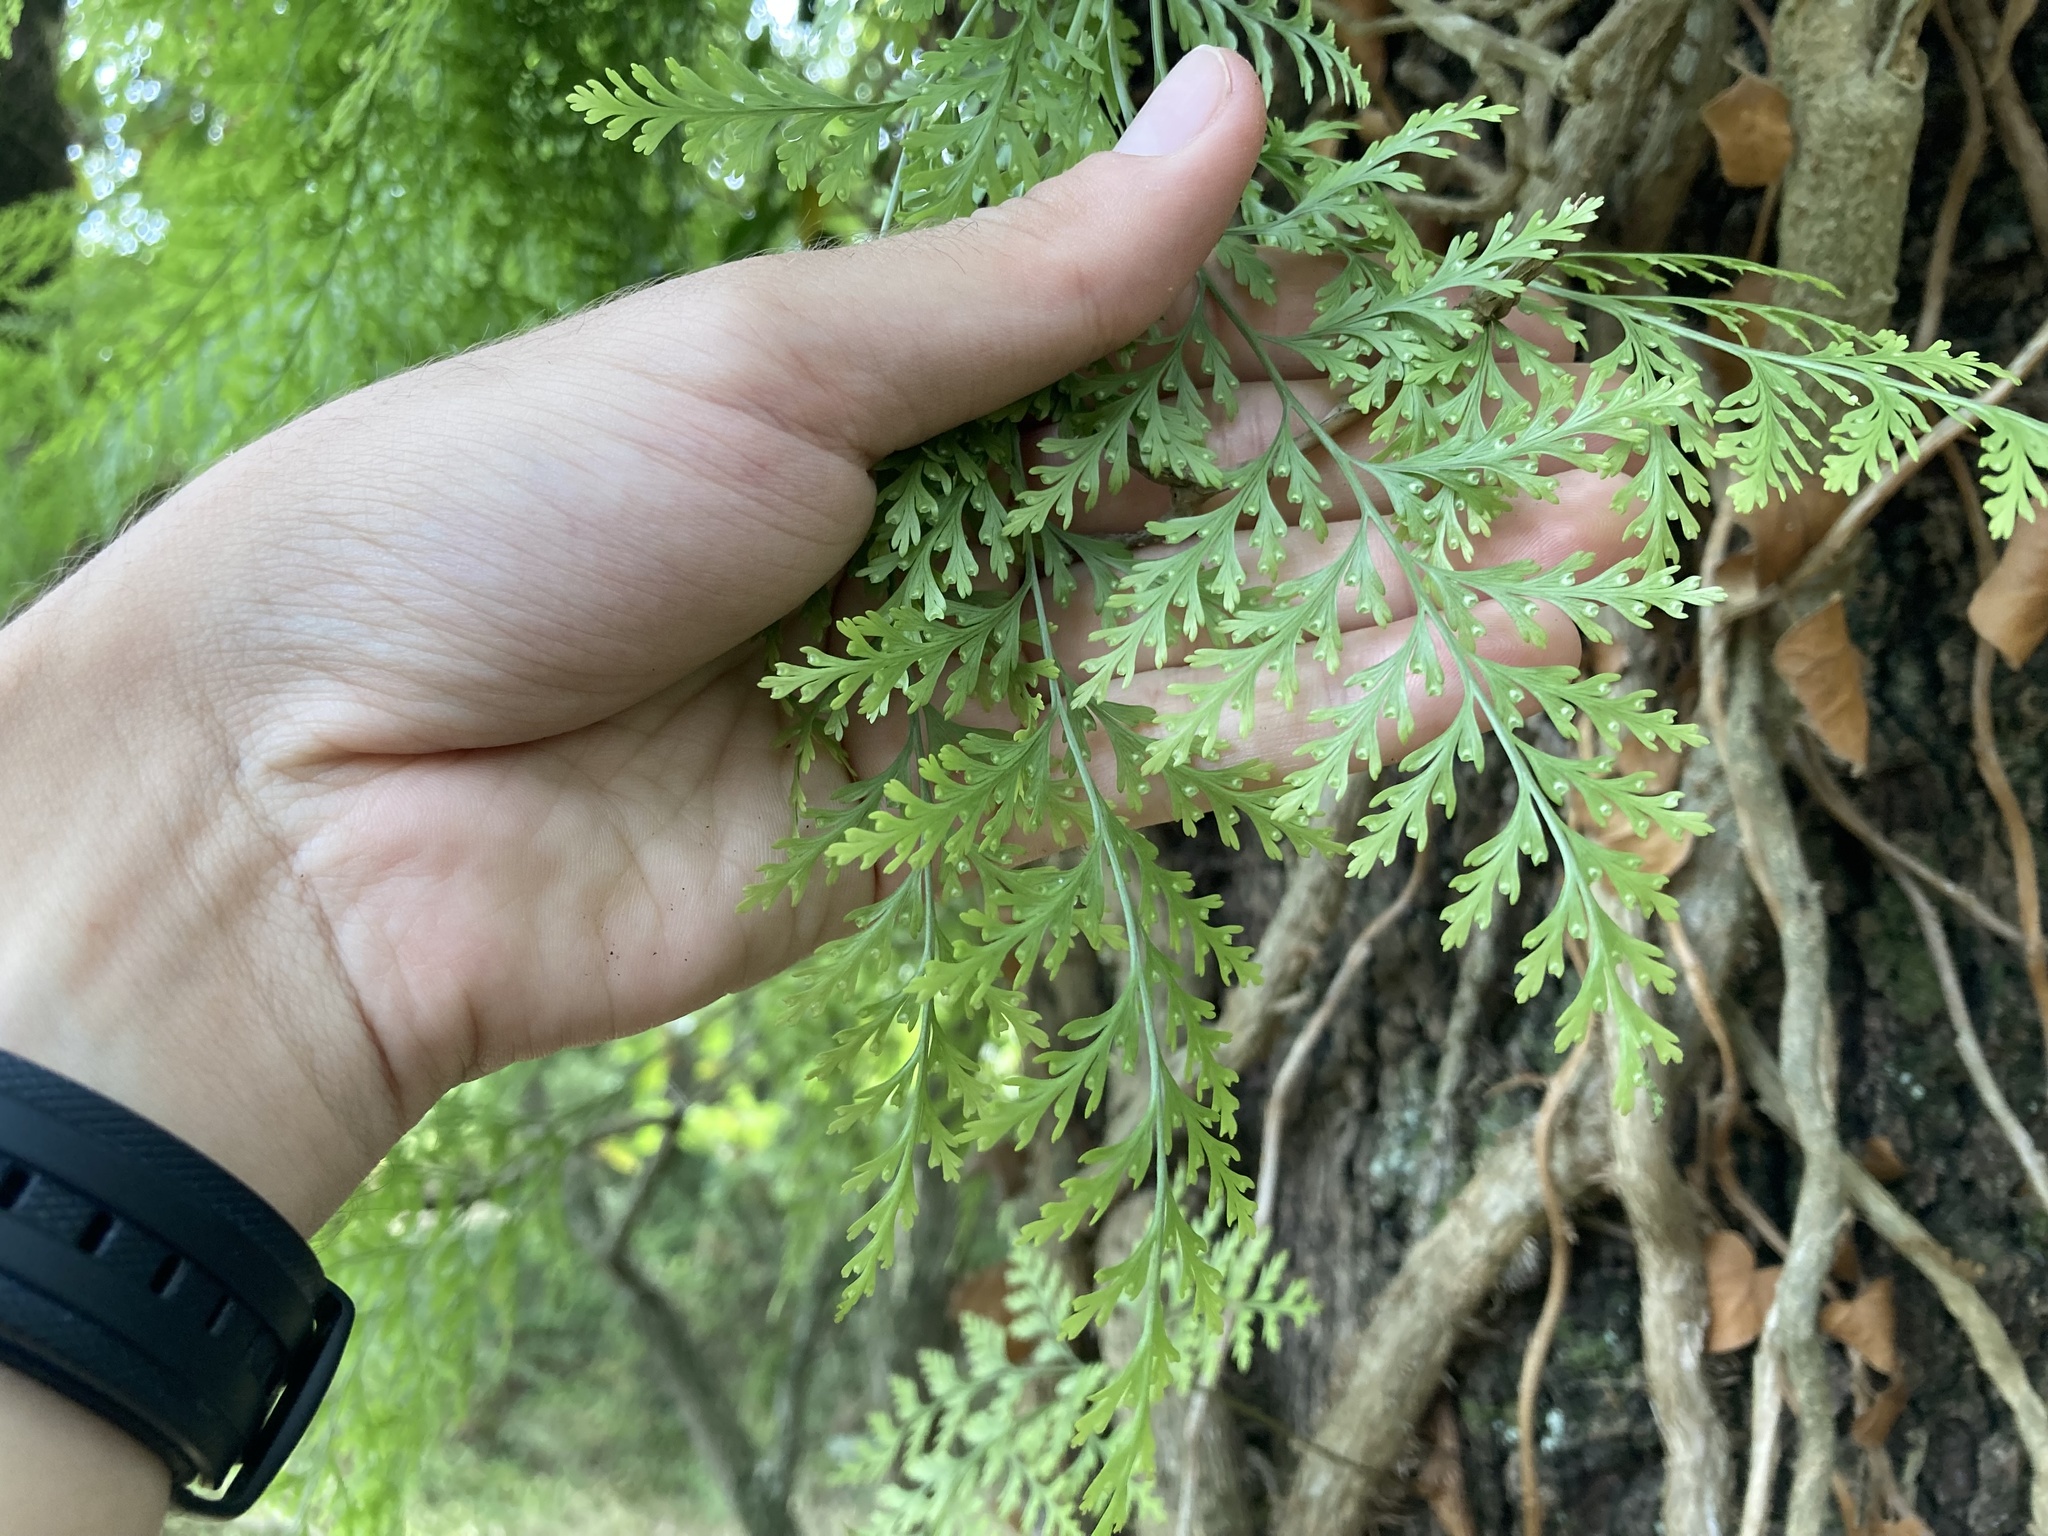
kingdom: Plantae
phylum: Tracheophyta
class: Polypodiopsida
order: Polypodiales
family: Davalliaceae
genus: Davallia
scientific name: Davallia canariensis
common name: Hare's-foot fern
